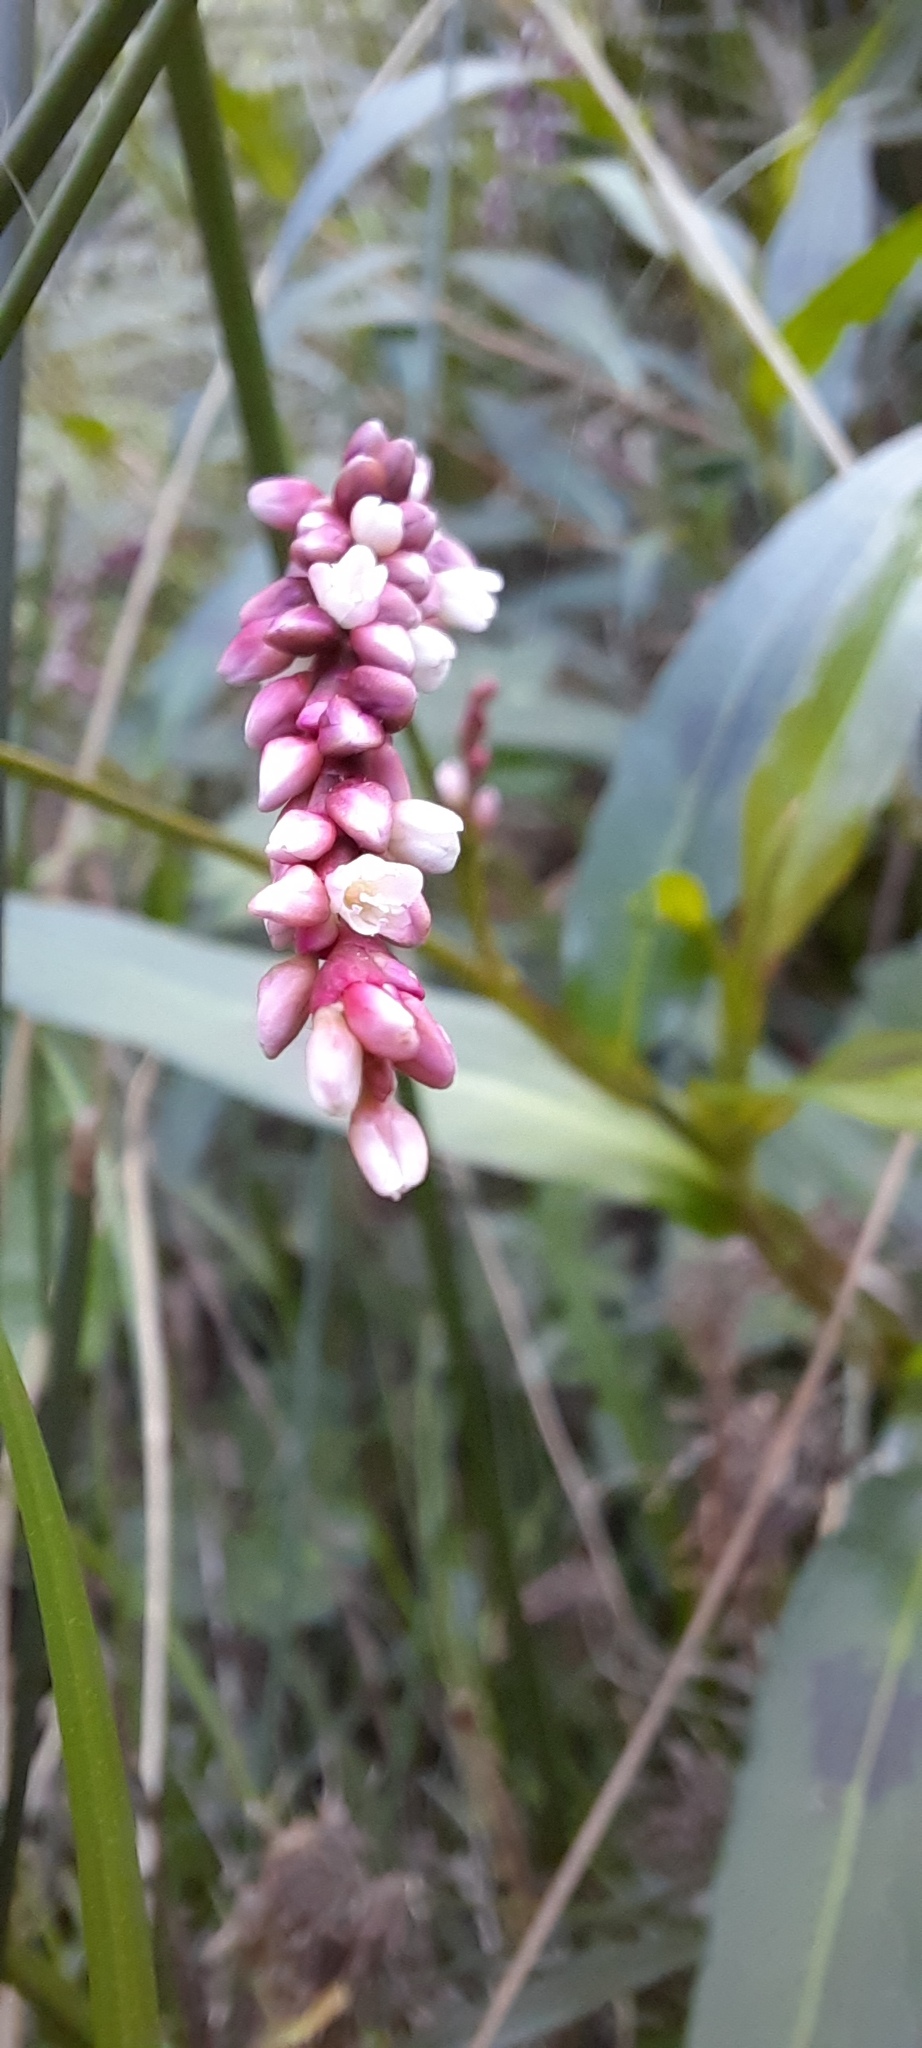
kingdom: Plantae
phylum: Tracheophyta
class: Magnoliopsida
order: Caryophyllales
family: Polygonaceae
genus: Persicaria
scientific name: Persicaria decipiens
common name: Willow-weed
